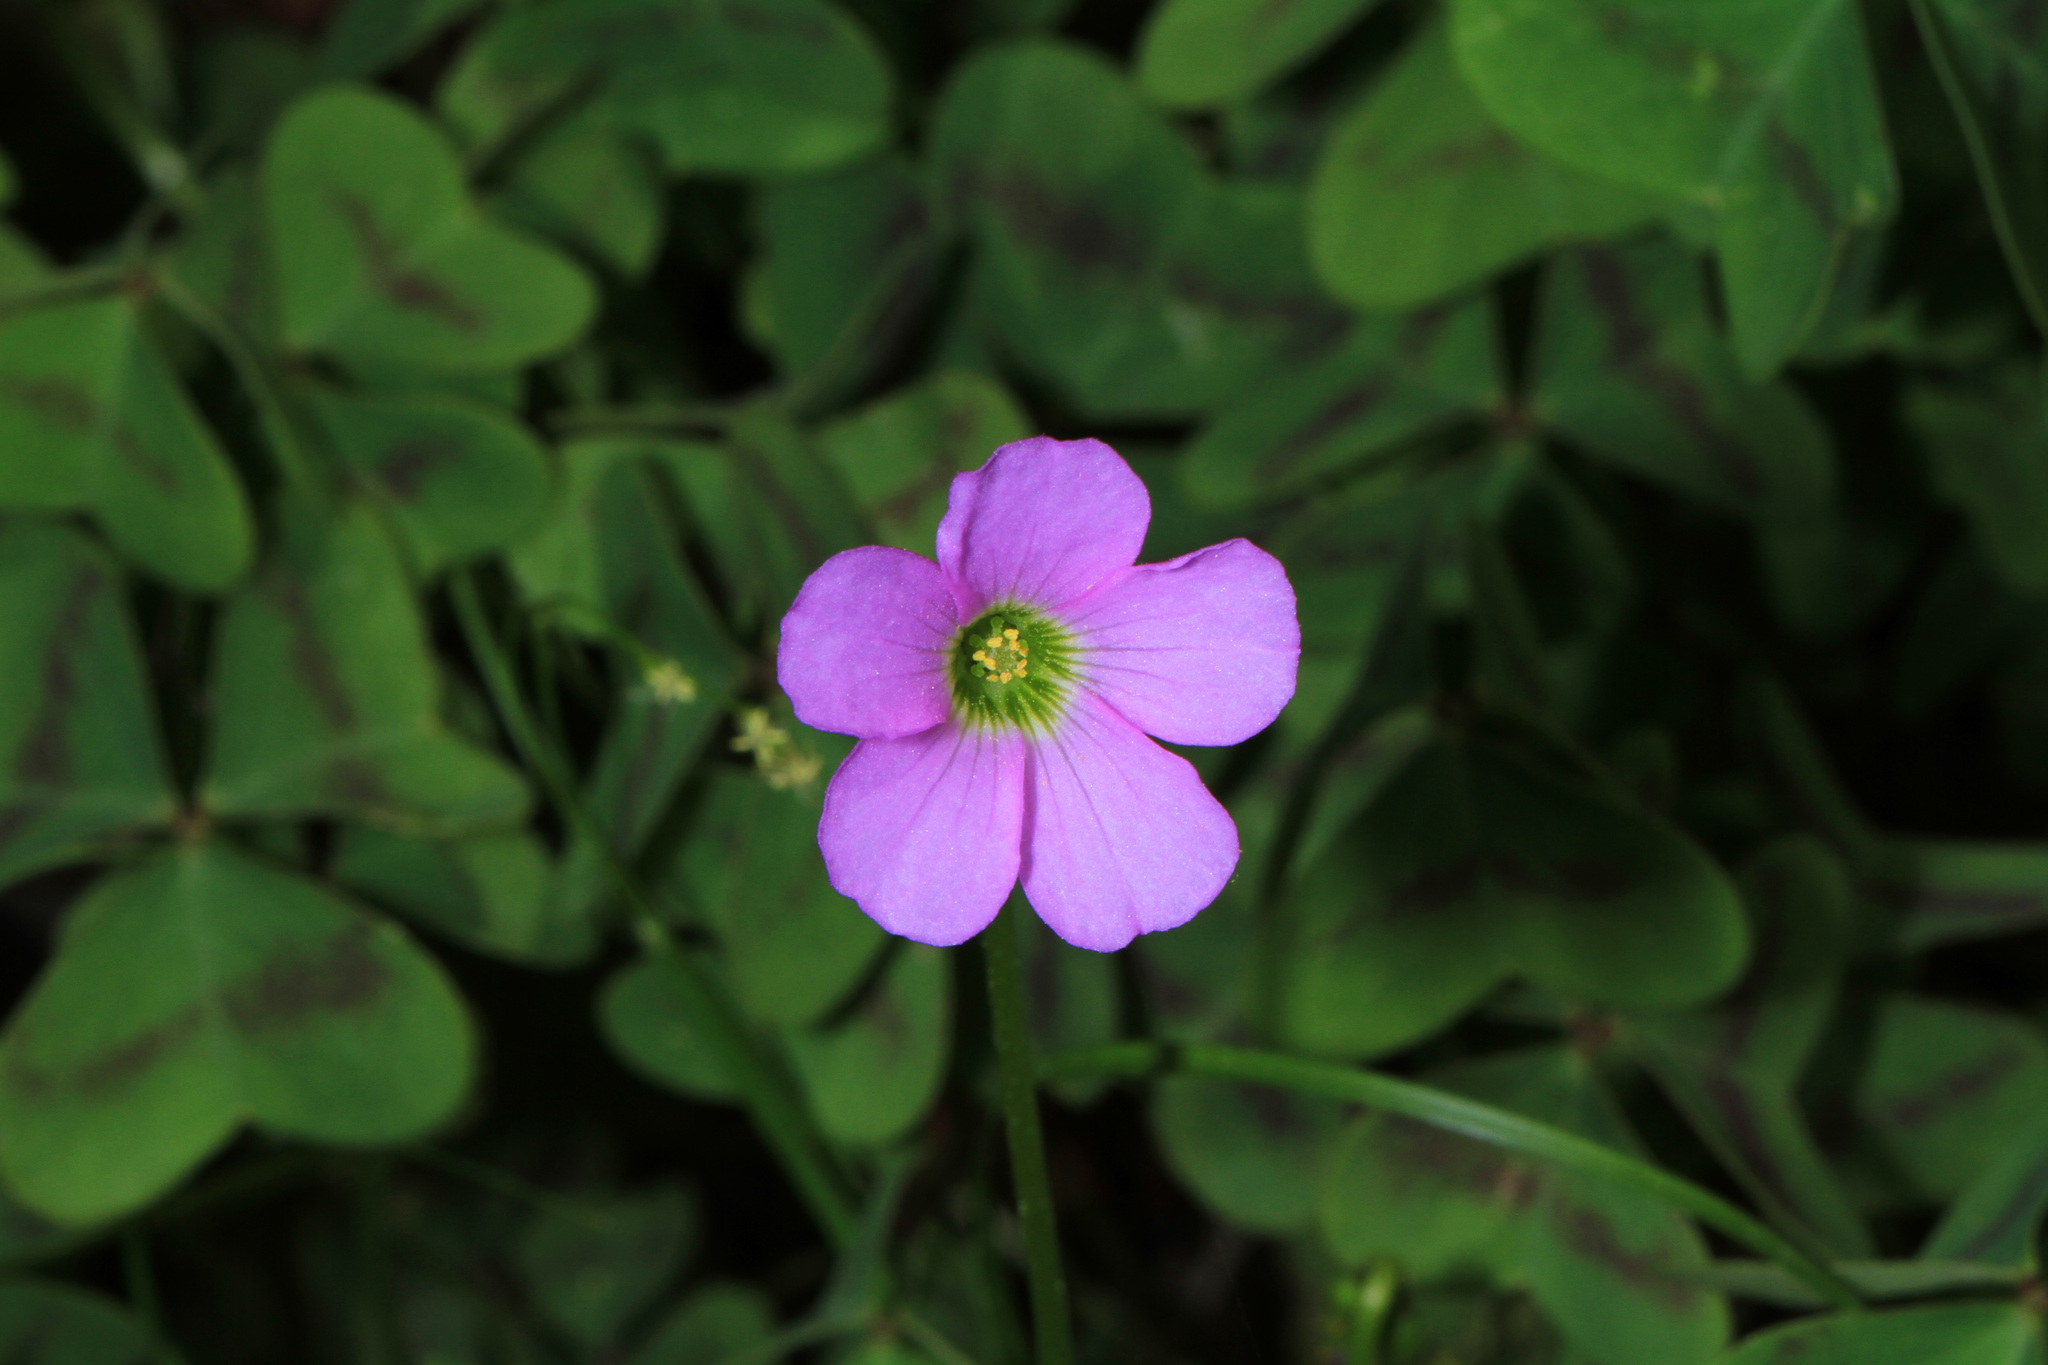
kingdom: Plantae
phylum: Tracheophyta
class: Magnoliopsida
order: Oxalidales
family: Oxalidaceae
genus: Oxalis
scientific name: Oxalis violacea
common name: Violet wood-sorrel
